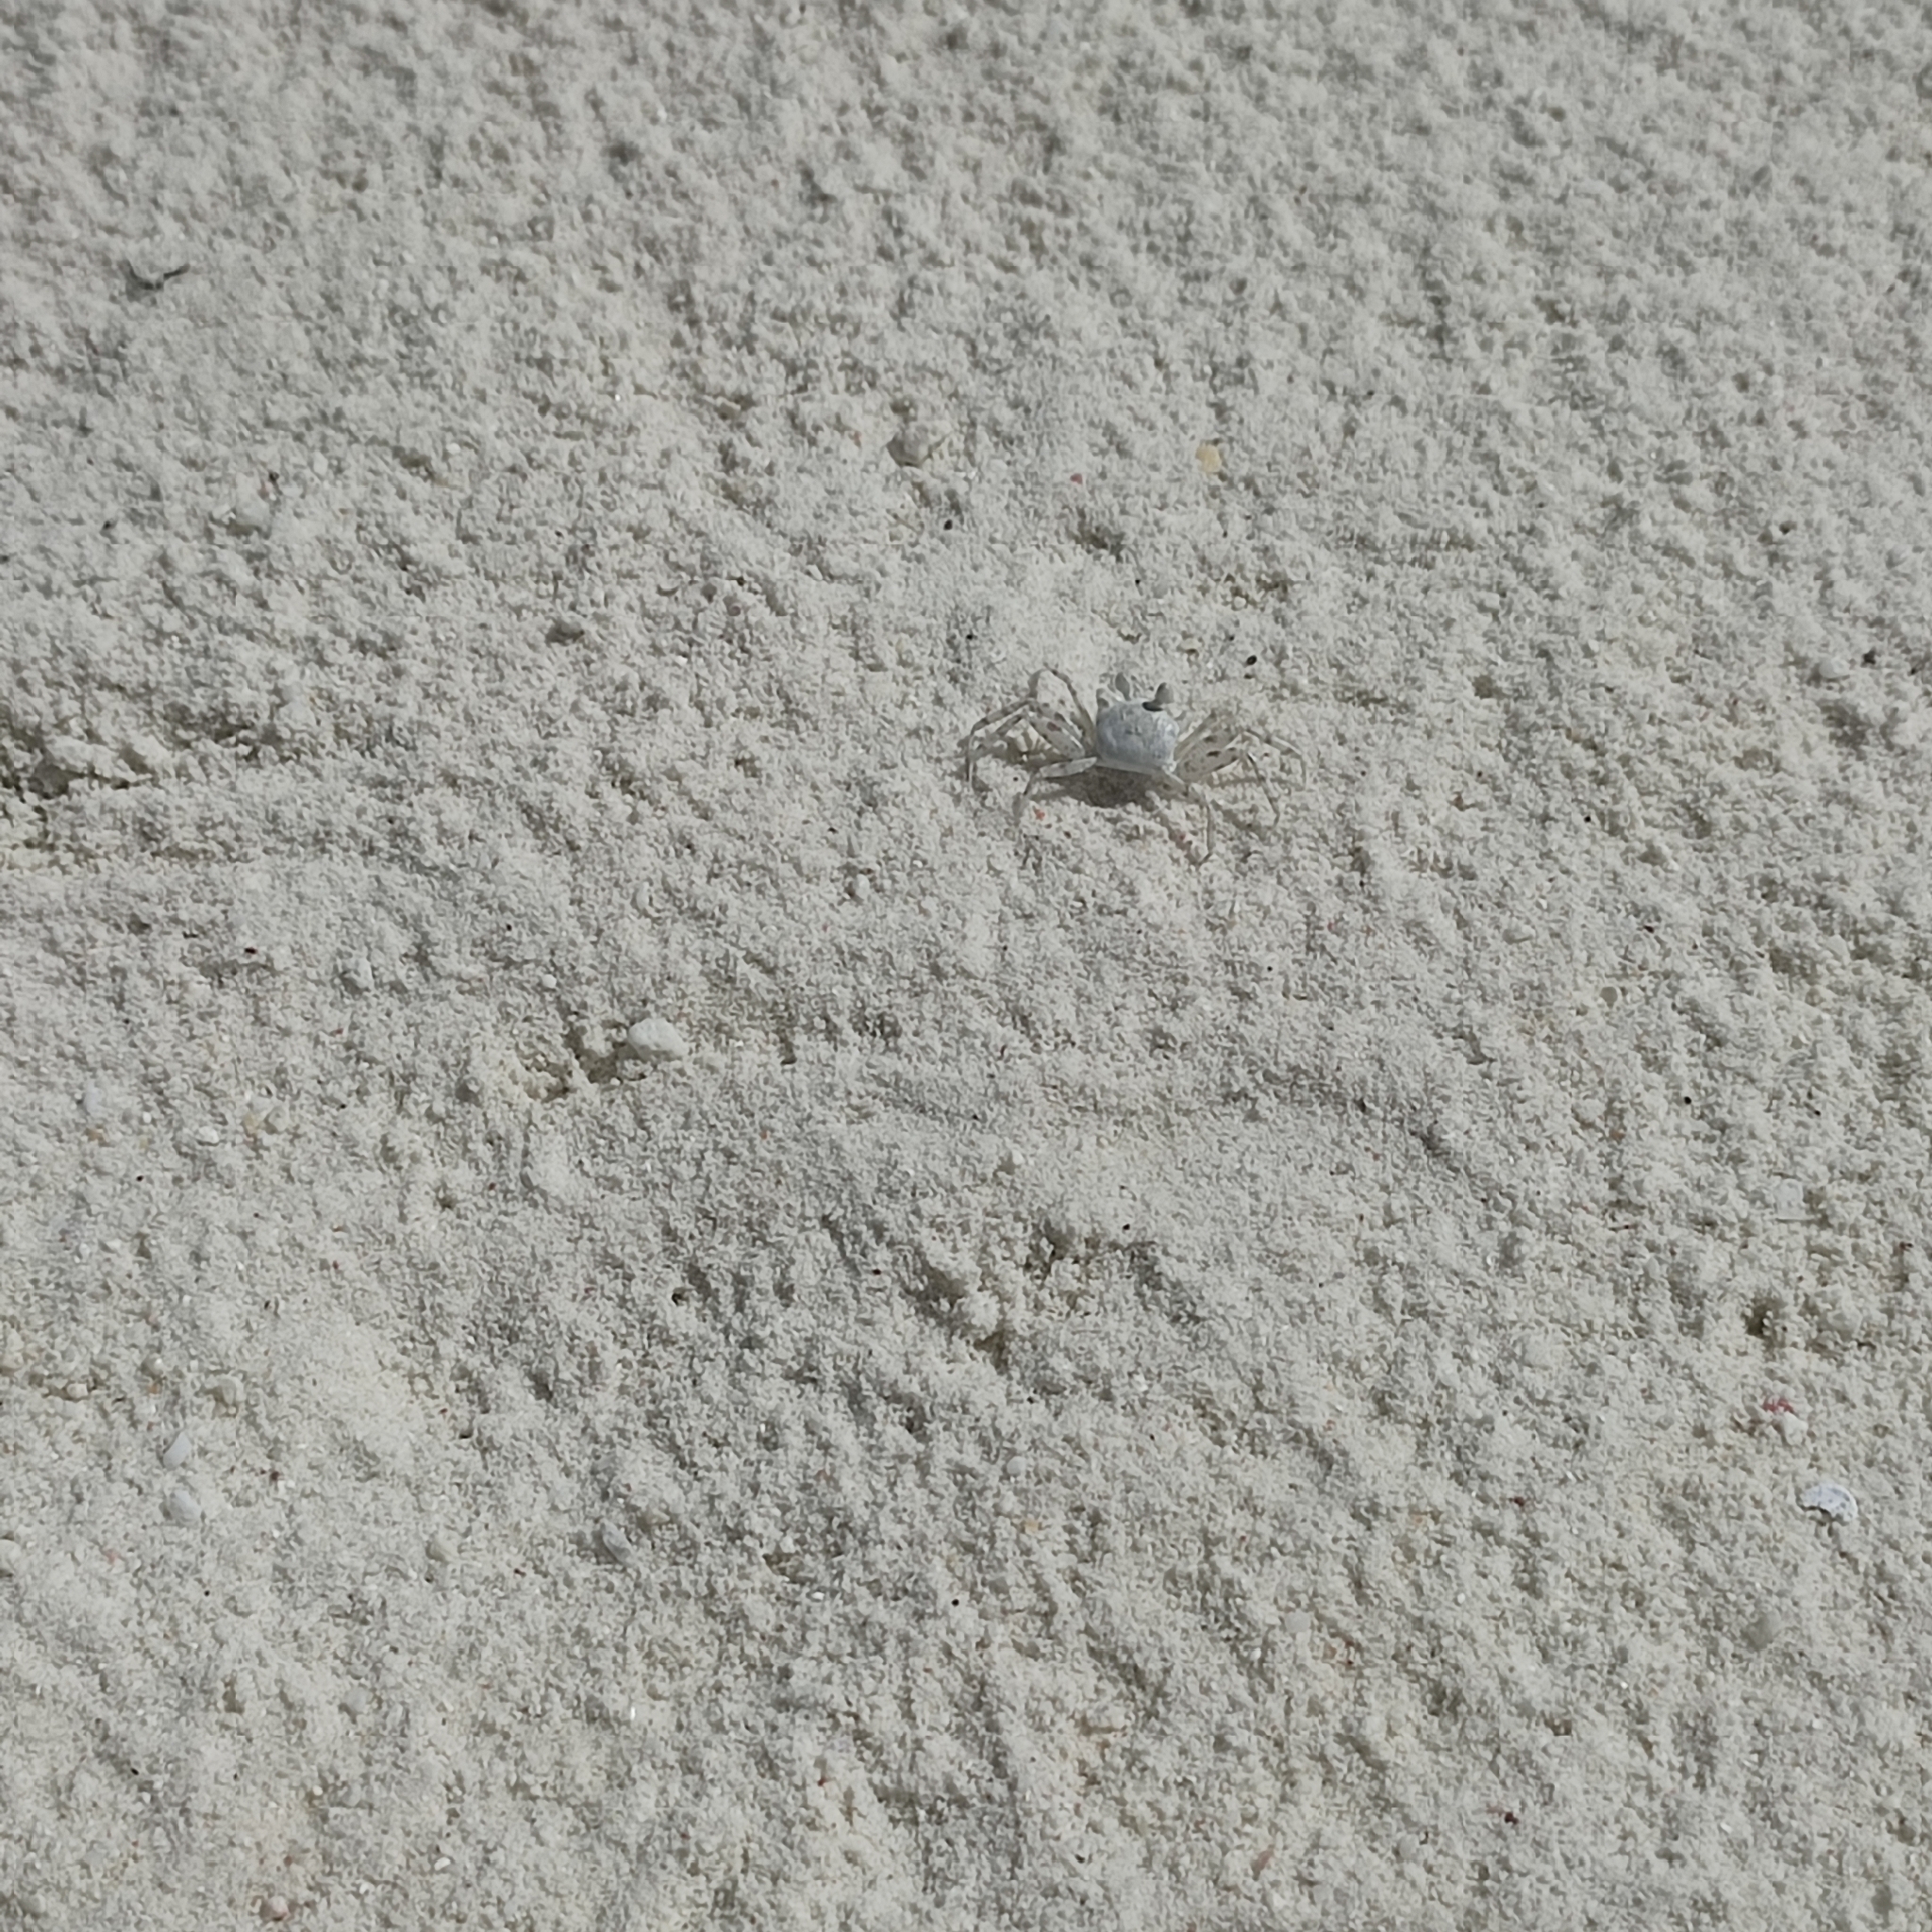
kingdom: Animalia
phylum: Arthropoda
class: Malacostraca
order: Decapoda
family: Ocypodidae
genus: Ocypode
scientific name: Ocypode
